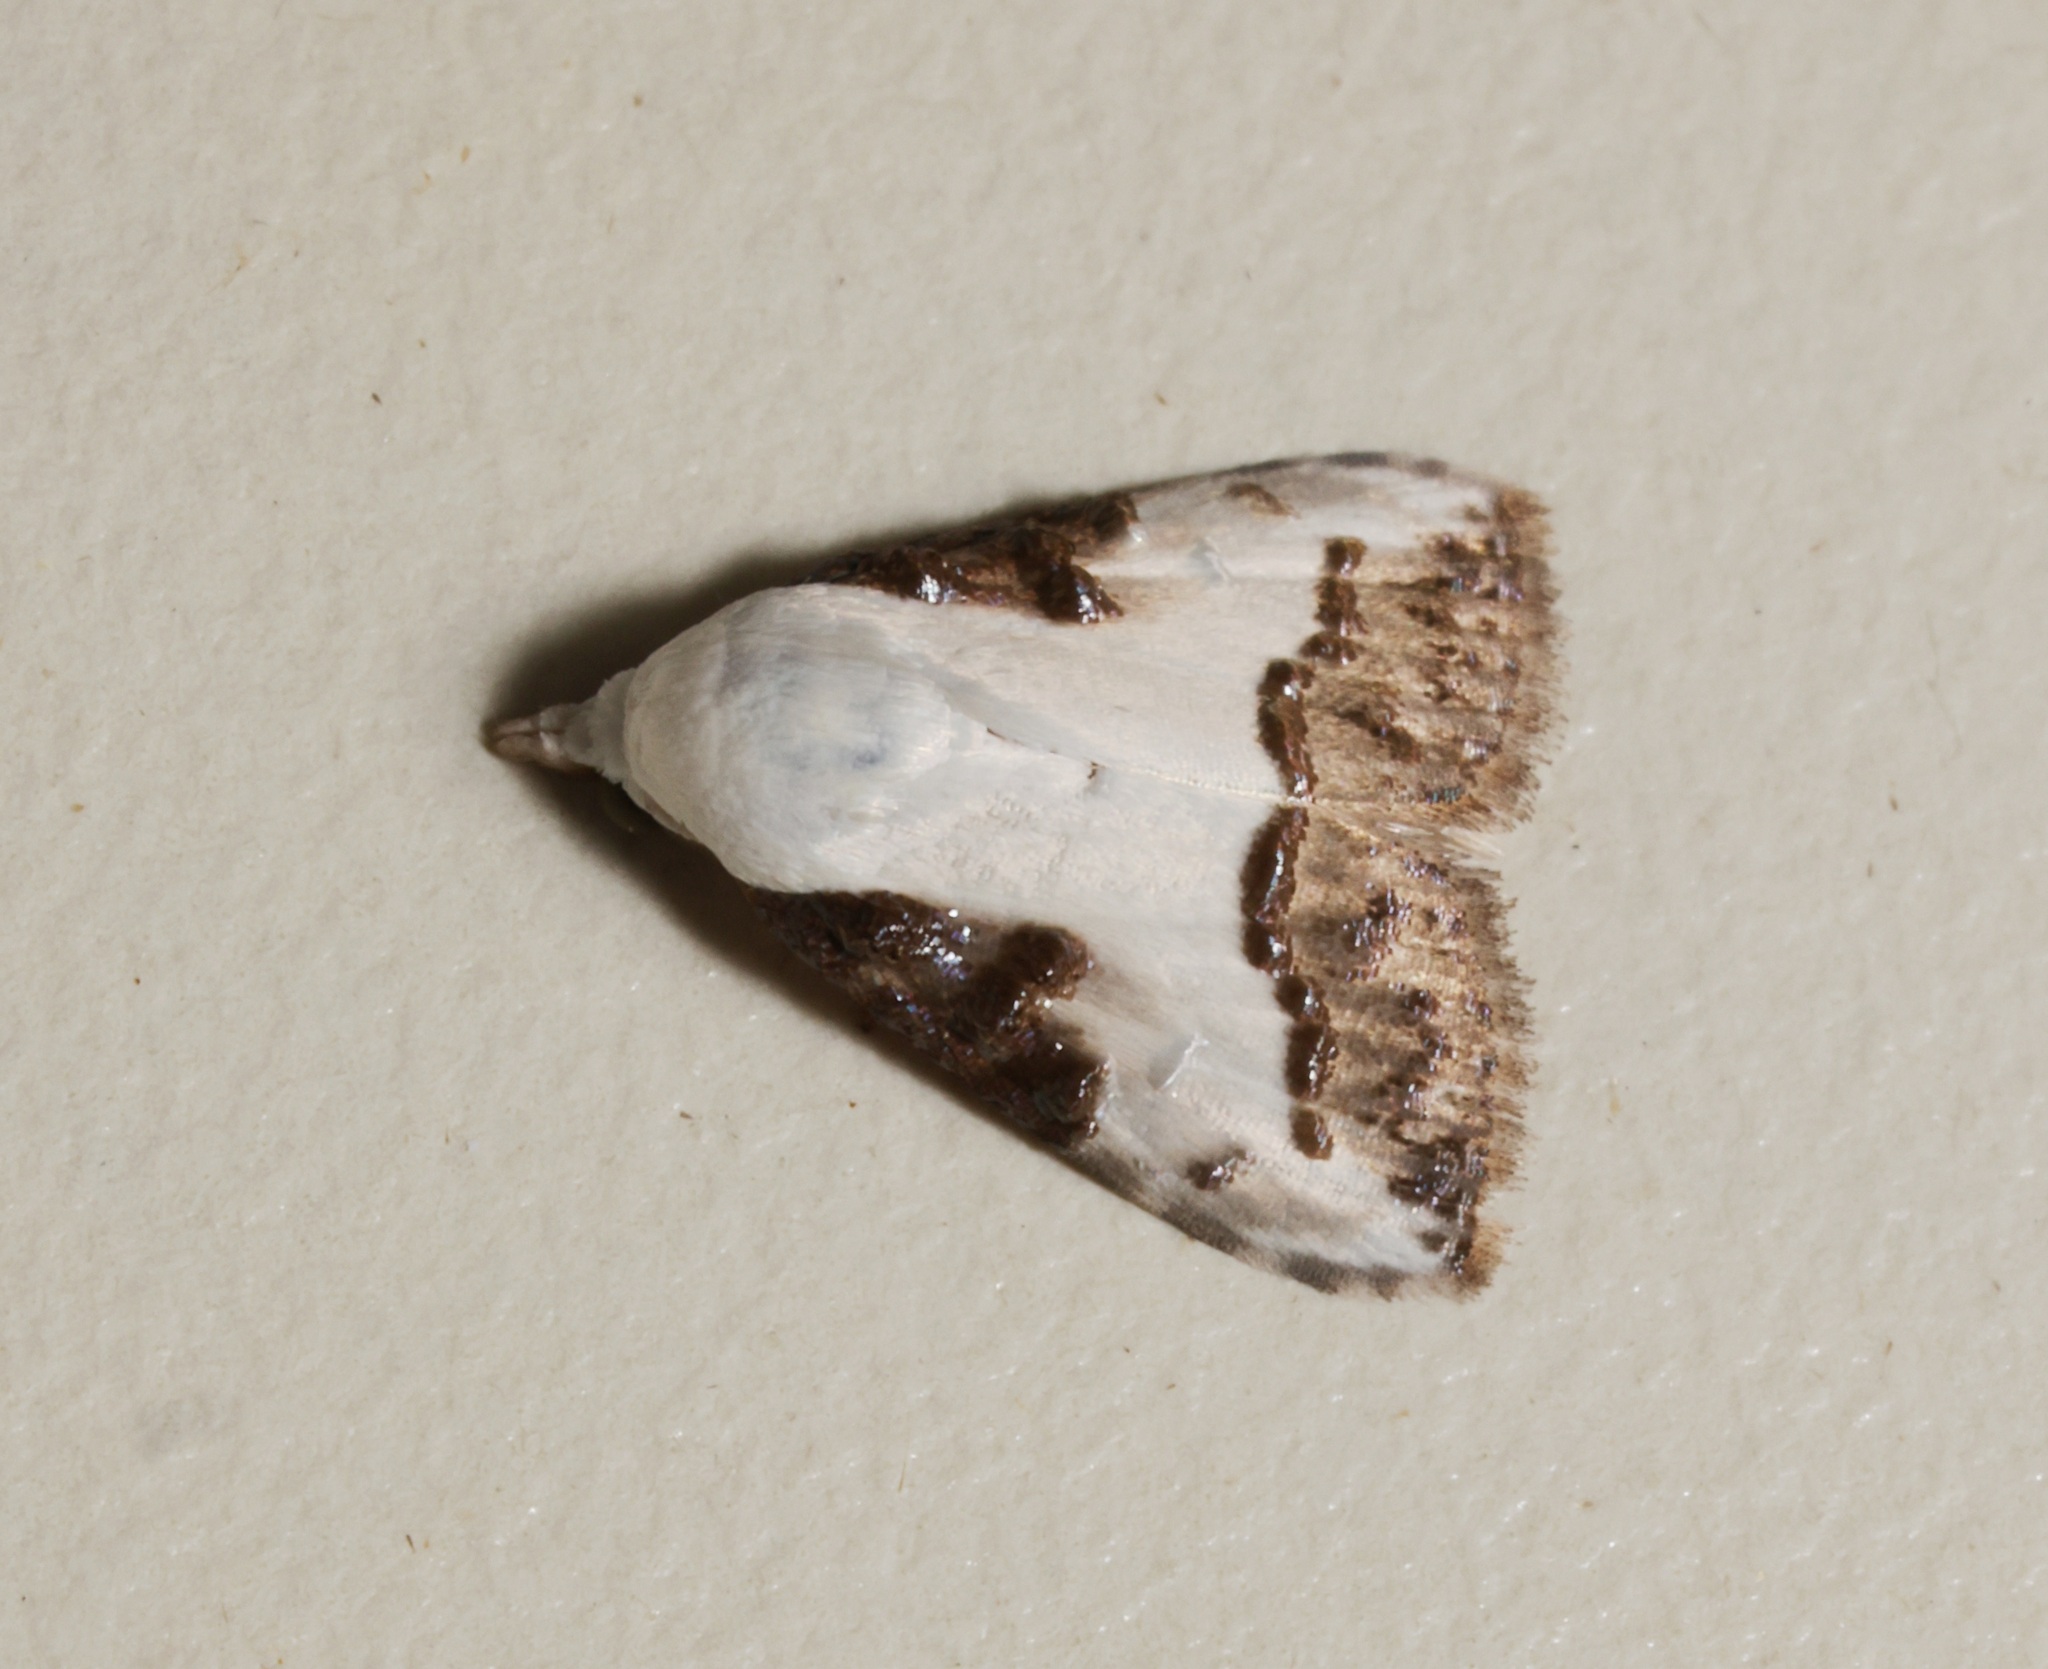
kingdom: Animalia
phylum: Arthropoda
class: Insecta
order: Lepidoptera
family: Nolidae
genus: Aeneanola
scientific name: Aeneanola acontioides
